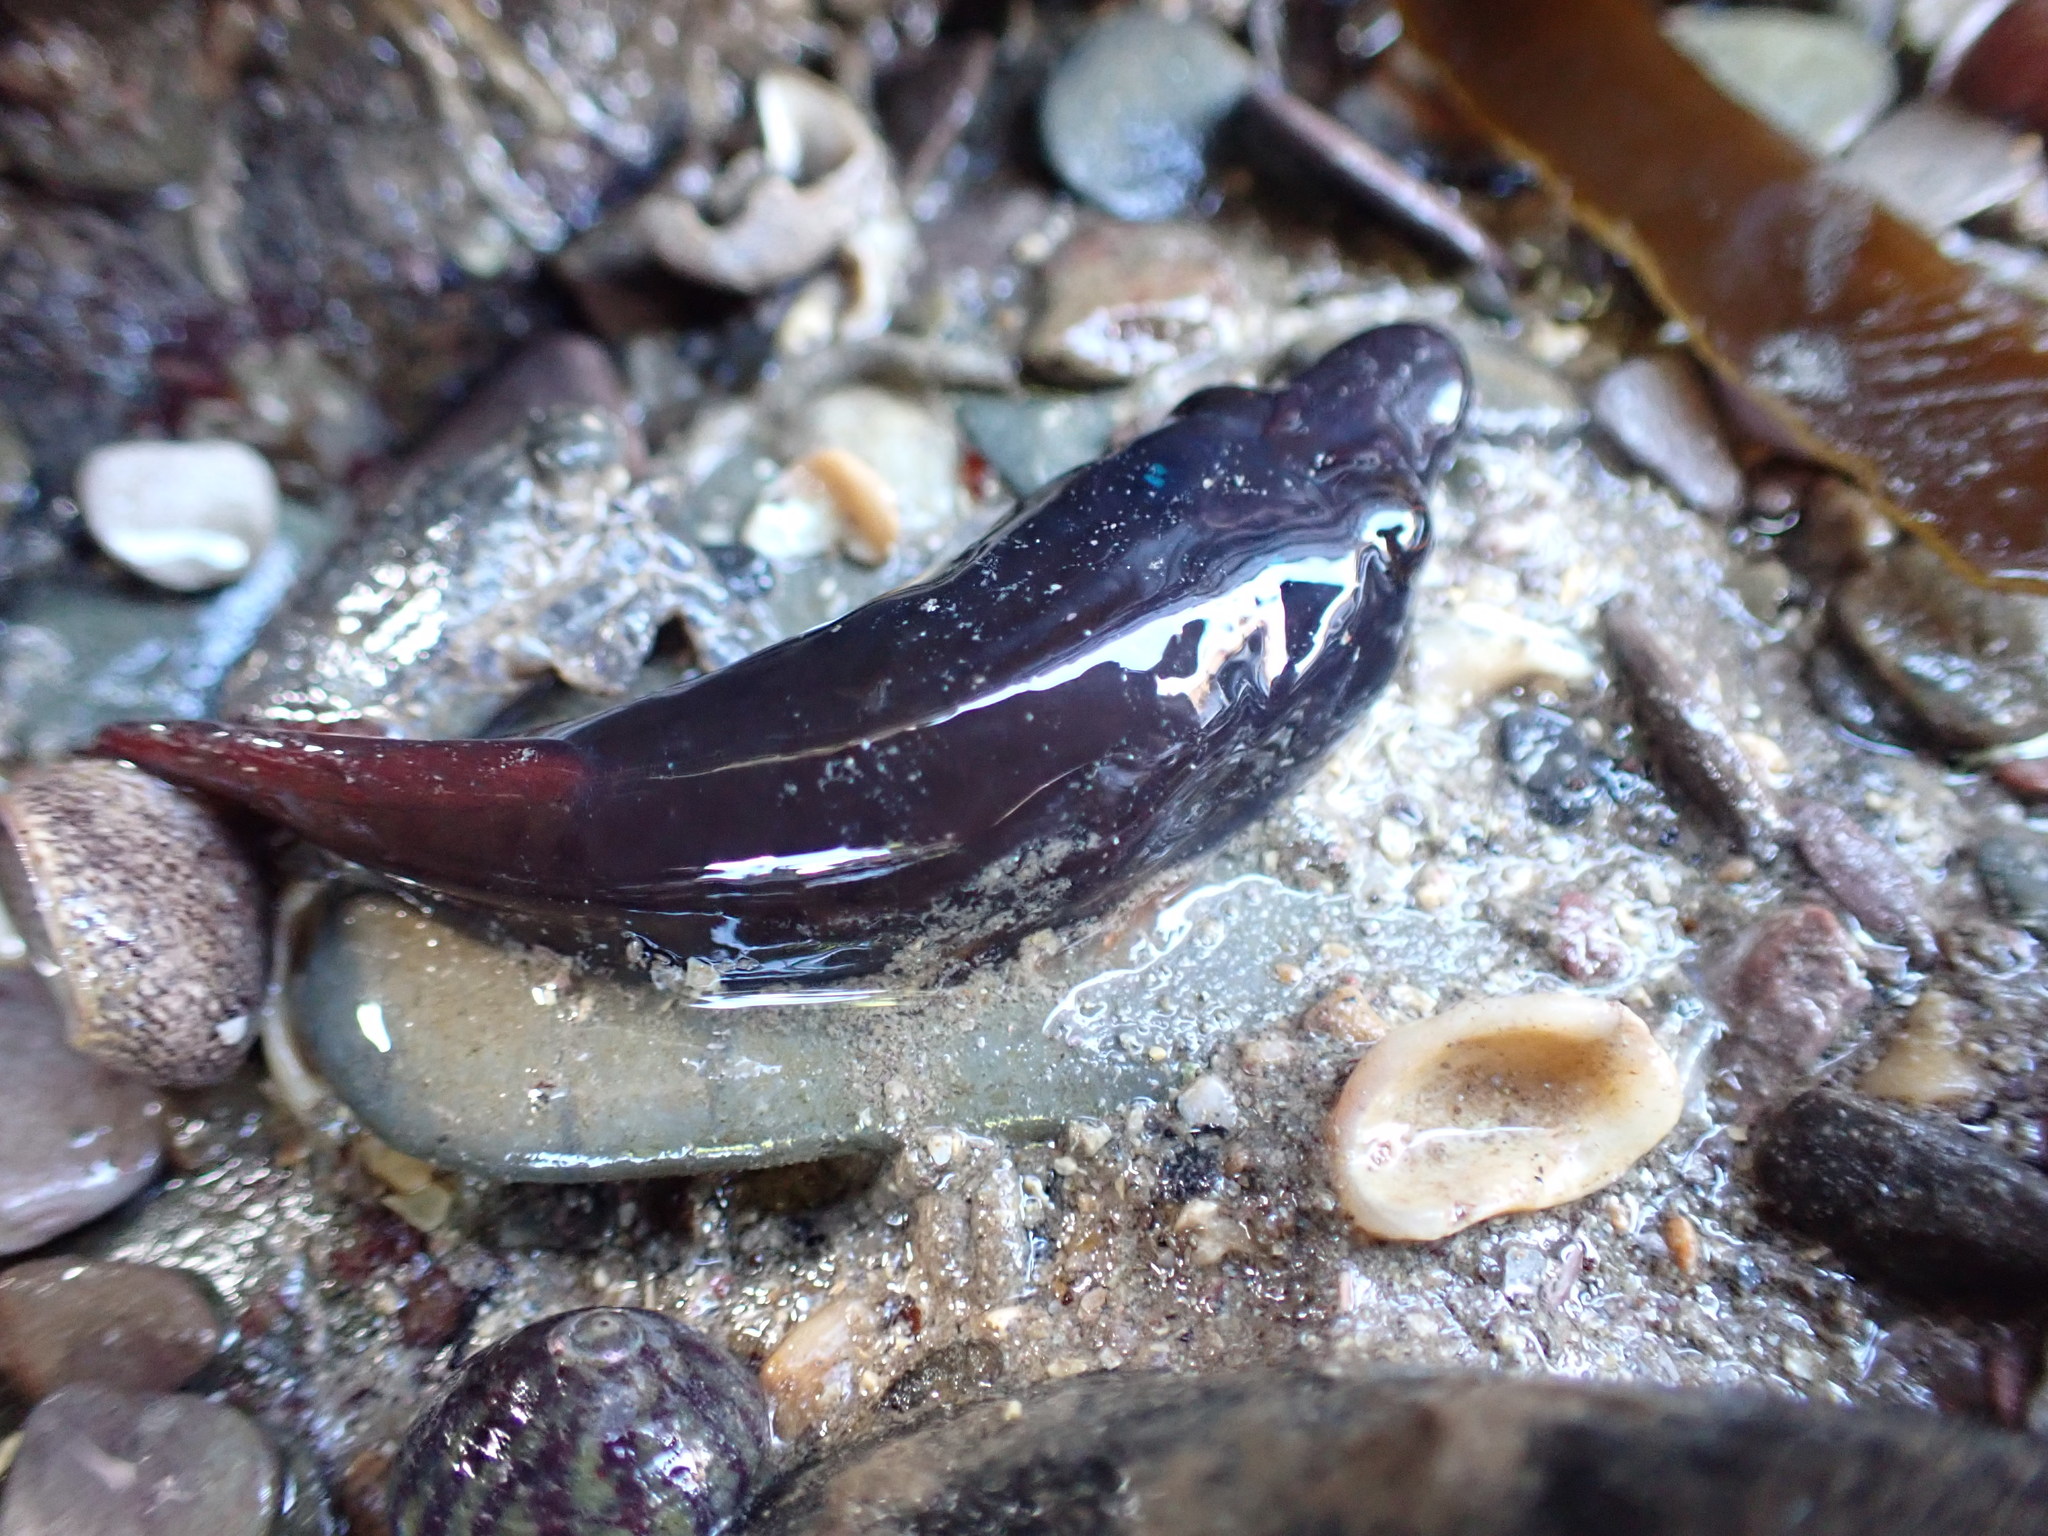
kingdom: Animalia
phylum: Chordata
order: Gobiesociformes
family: Gobiesocidae
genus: Lepadogaster
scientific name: Lepadogaster purpurea
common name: Cornish sucker
